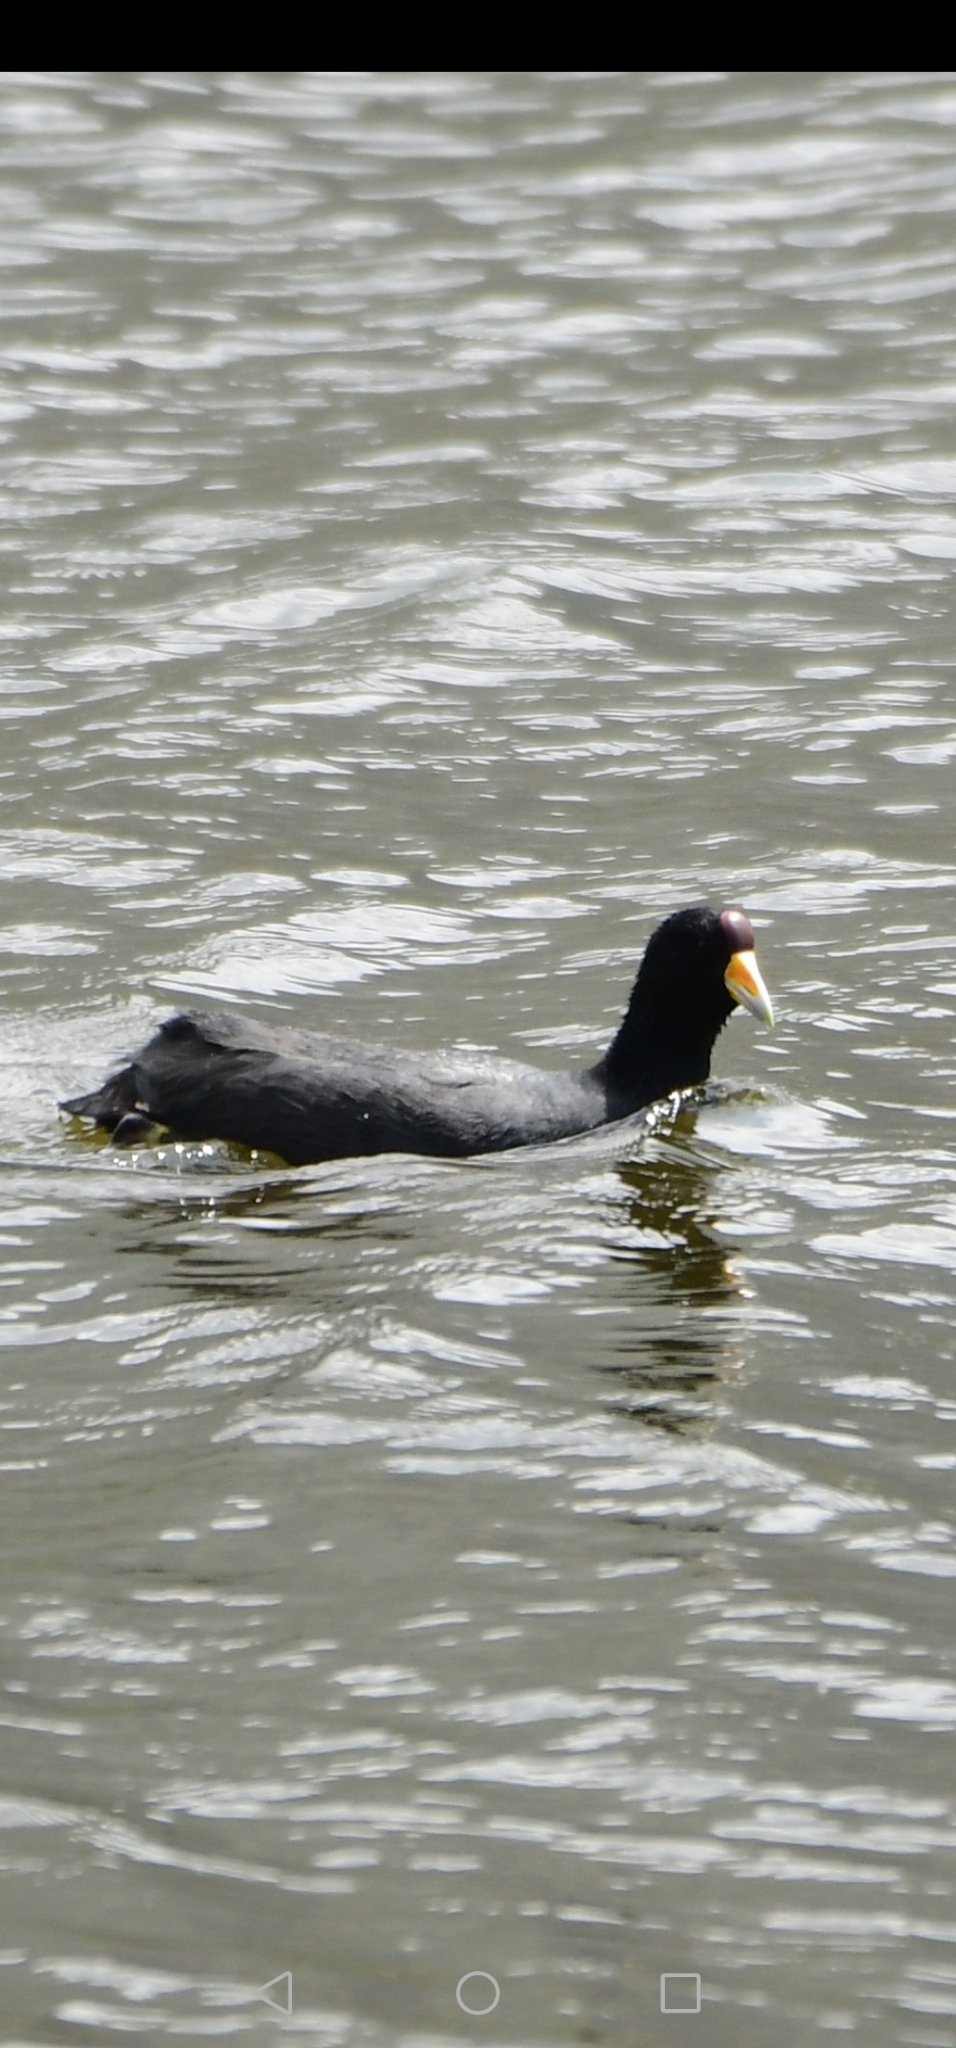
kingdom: Animalia
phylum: Chordata
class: Aves
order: Gruiformes
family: Rallidae
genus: Fulica
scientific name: Fulica ardesiaca
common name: Andean coot
